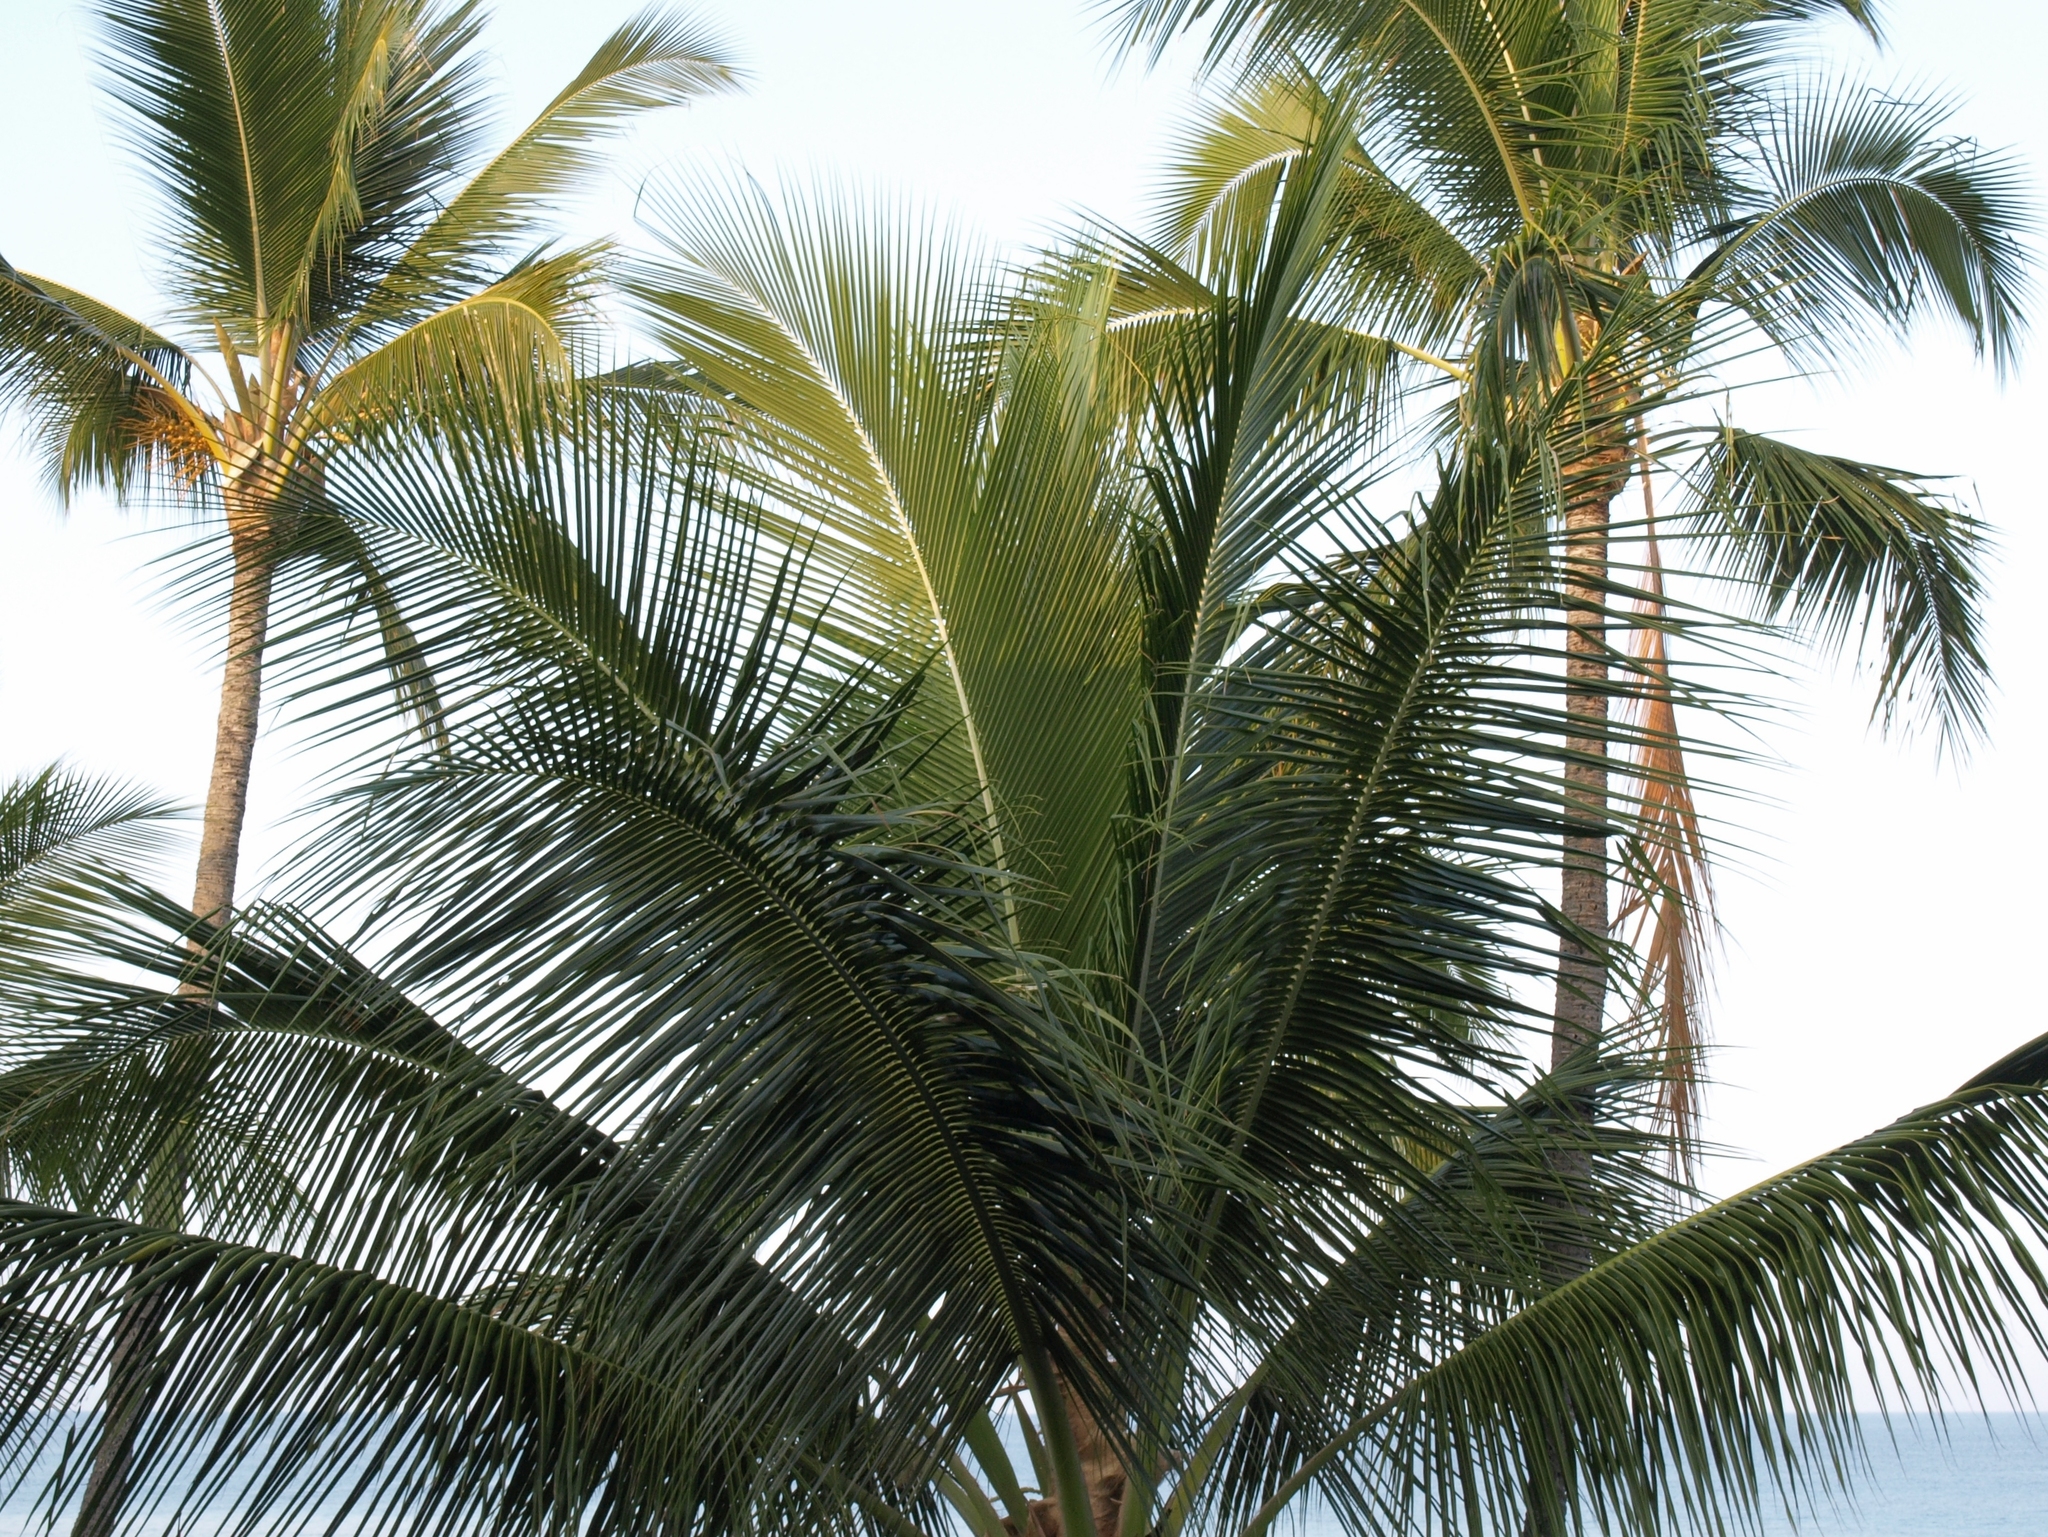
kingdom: Plantae
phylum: Tracheophyta
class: Liliopsida
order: Arecales
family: Arecaceae
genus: Cocos
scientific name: Cocos nucifera
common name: Coconut palm
